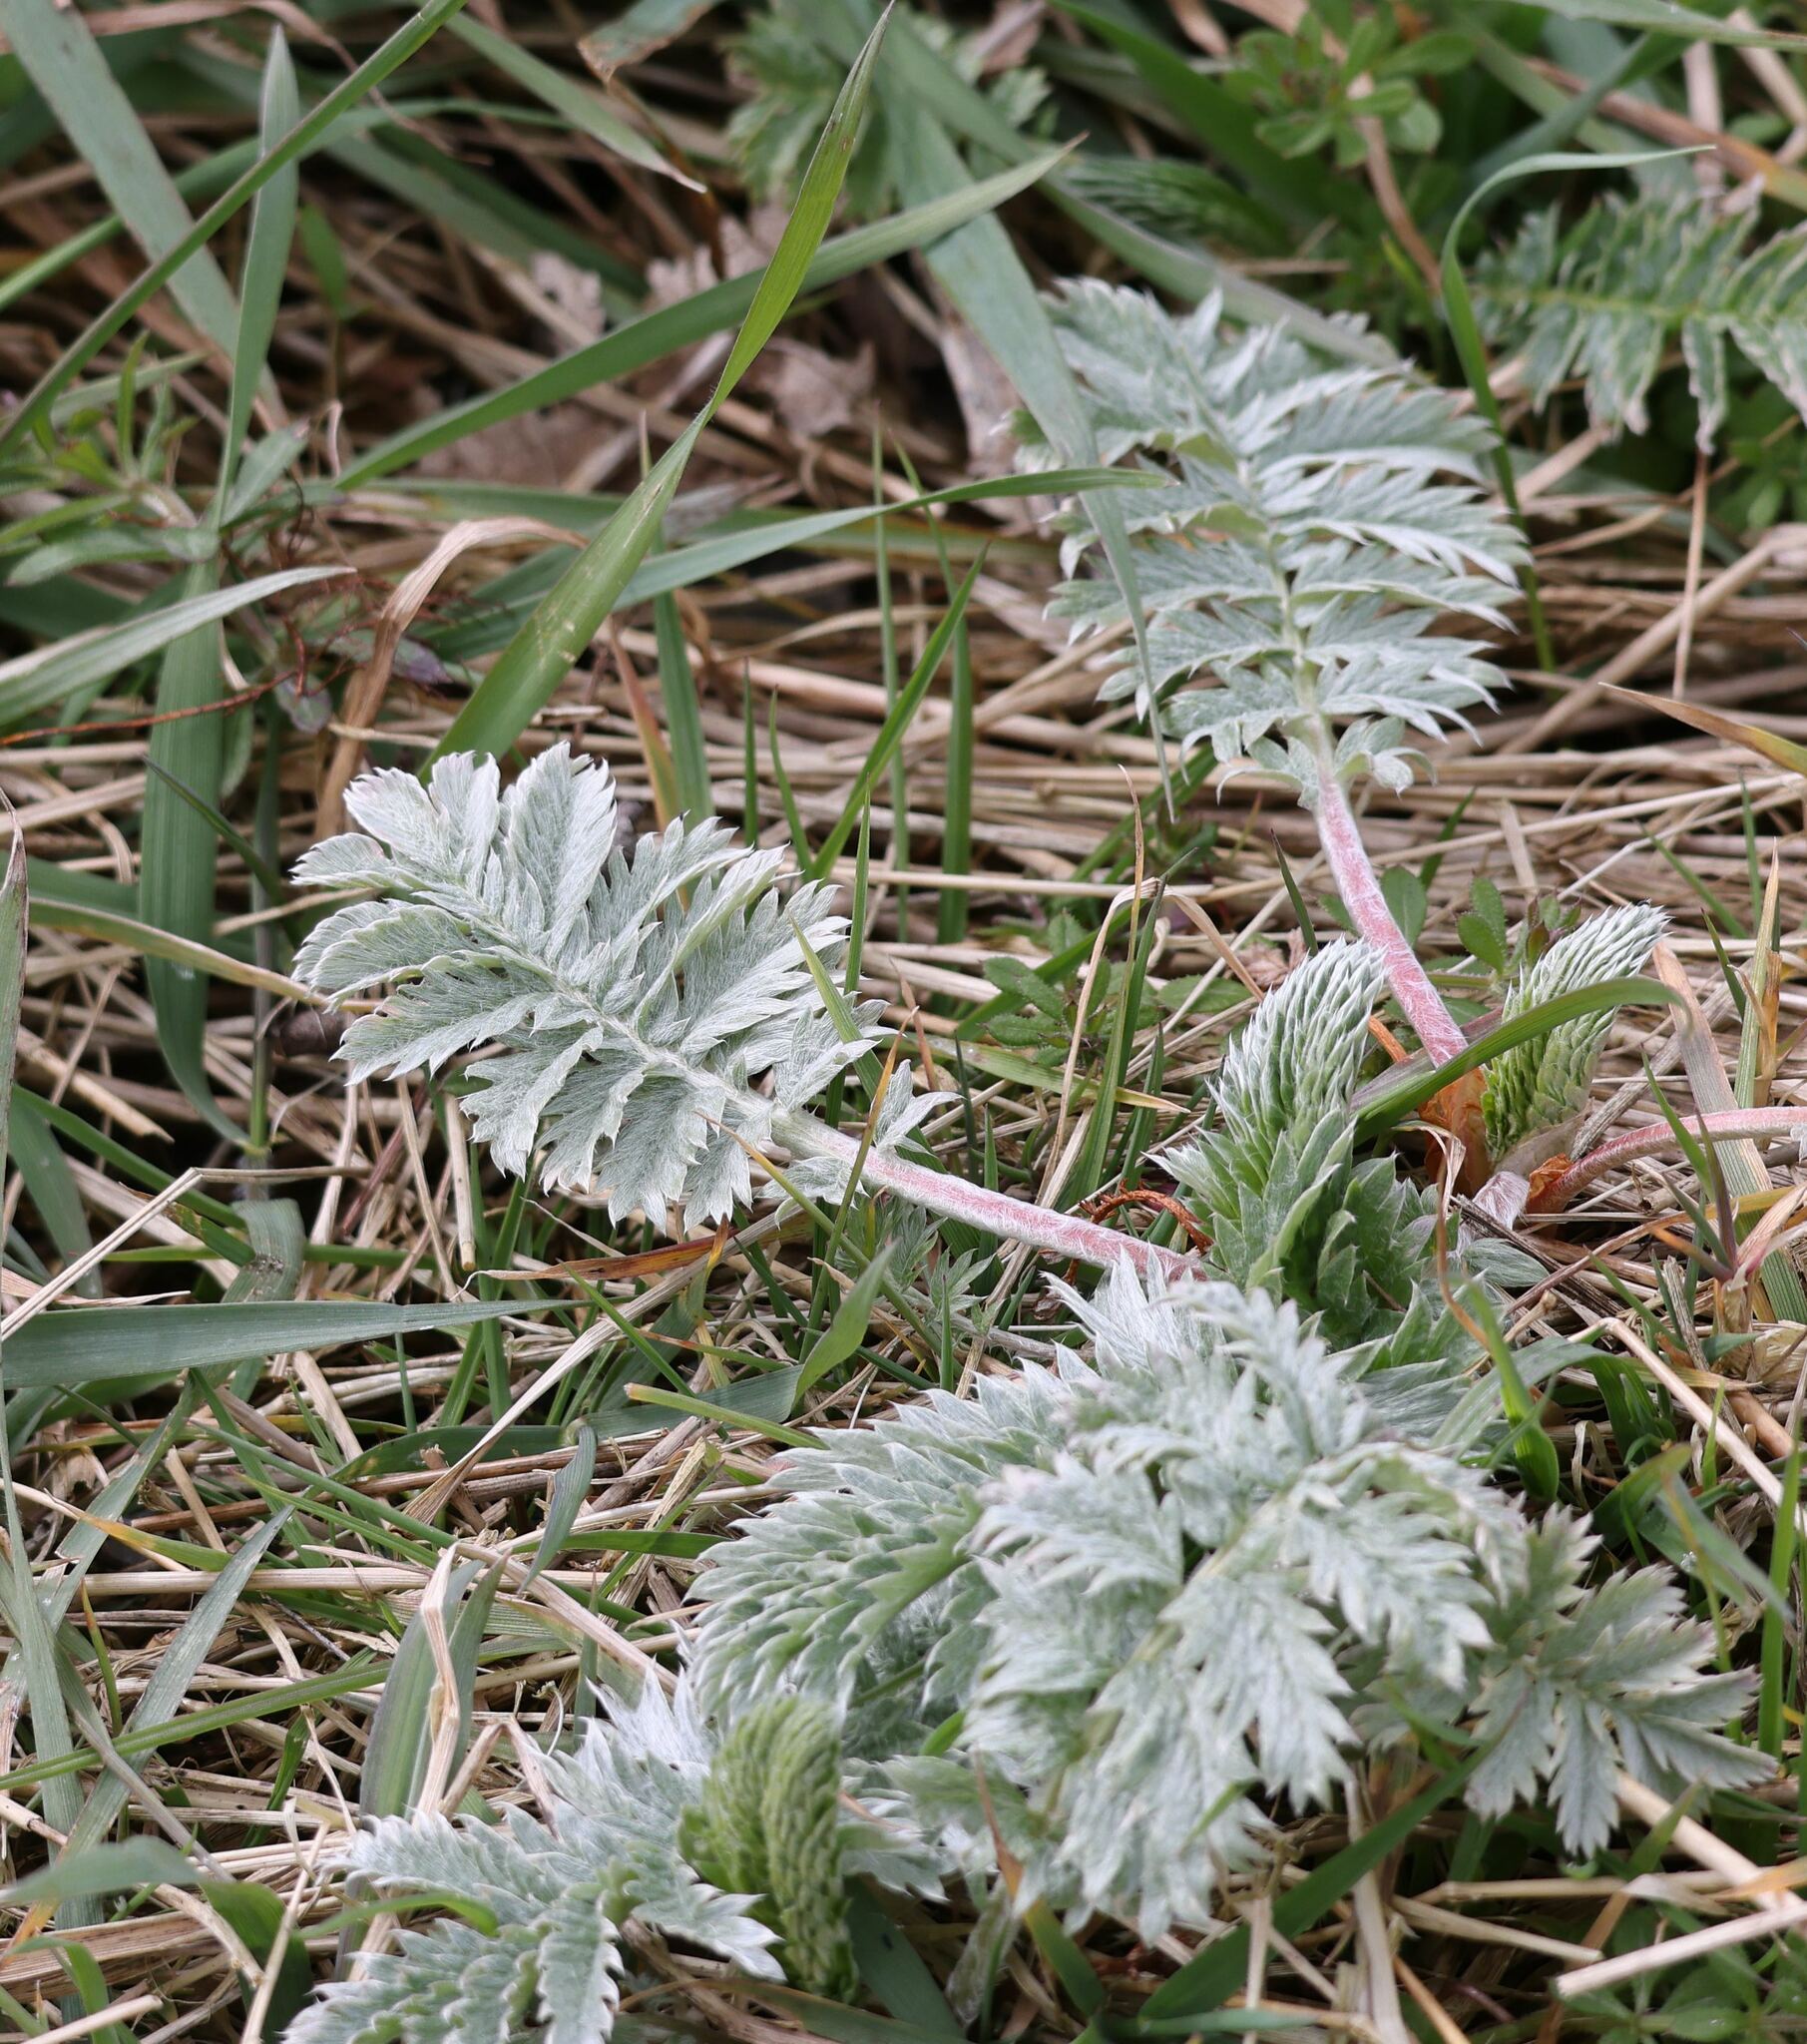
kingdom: Plantae
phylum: Tracheophyta
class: Magnoliopsida
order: Rosales
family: Rosaceae
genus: Argentina
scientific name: Argentina anserina
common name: Common silverweed
